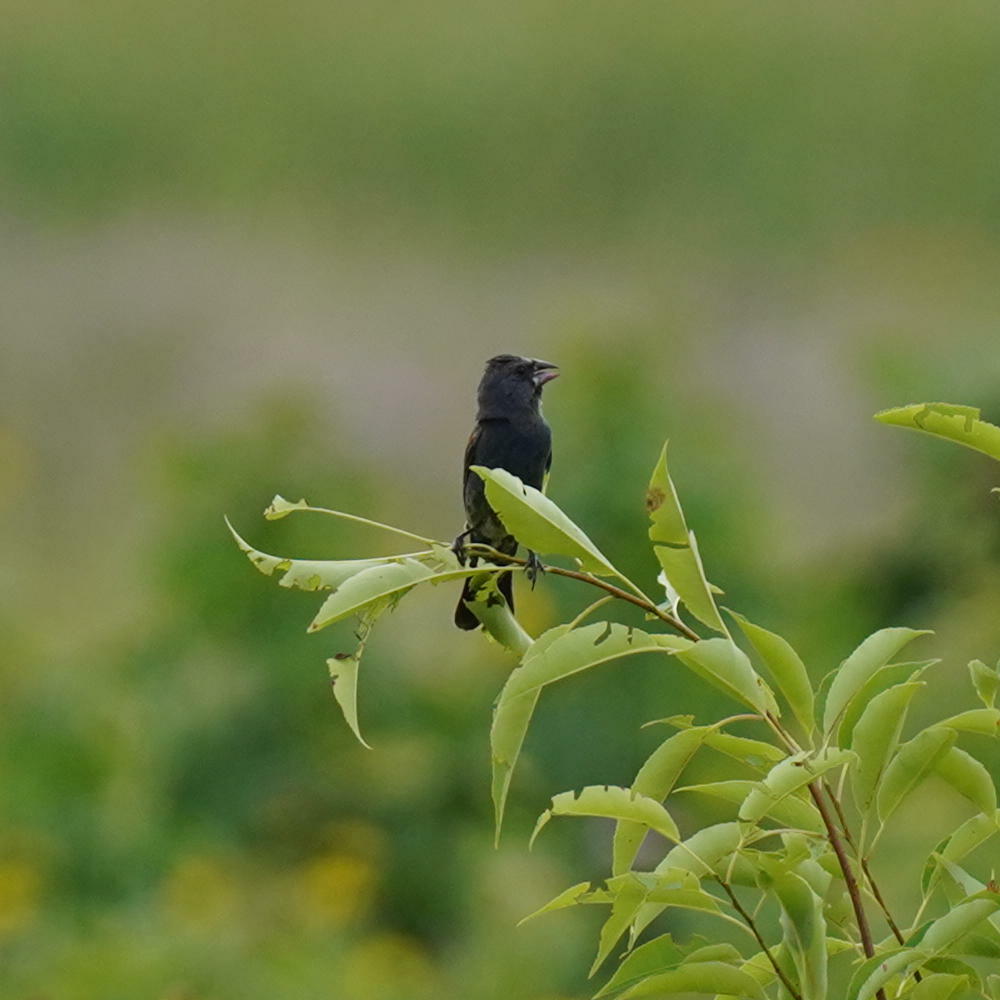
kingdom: Animalia
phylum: Chordata
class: Aves
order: Passeriformes
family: Cardinalidae
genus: Passerina
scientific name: Passerina caerulea
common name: Blue grosbeak
